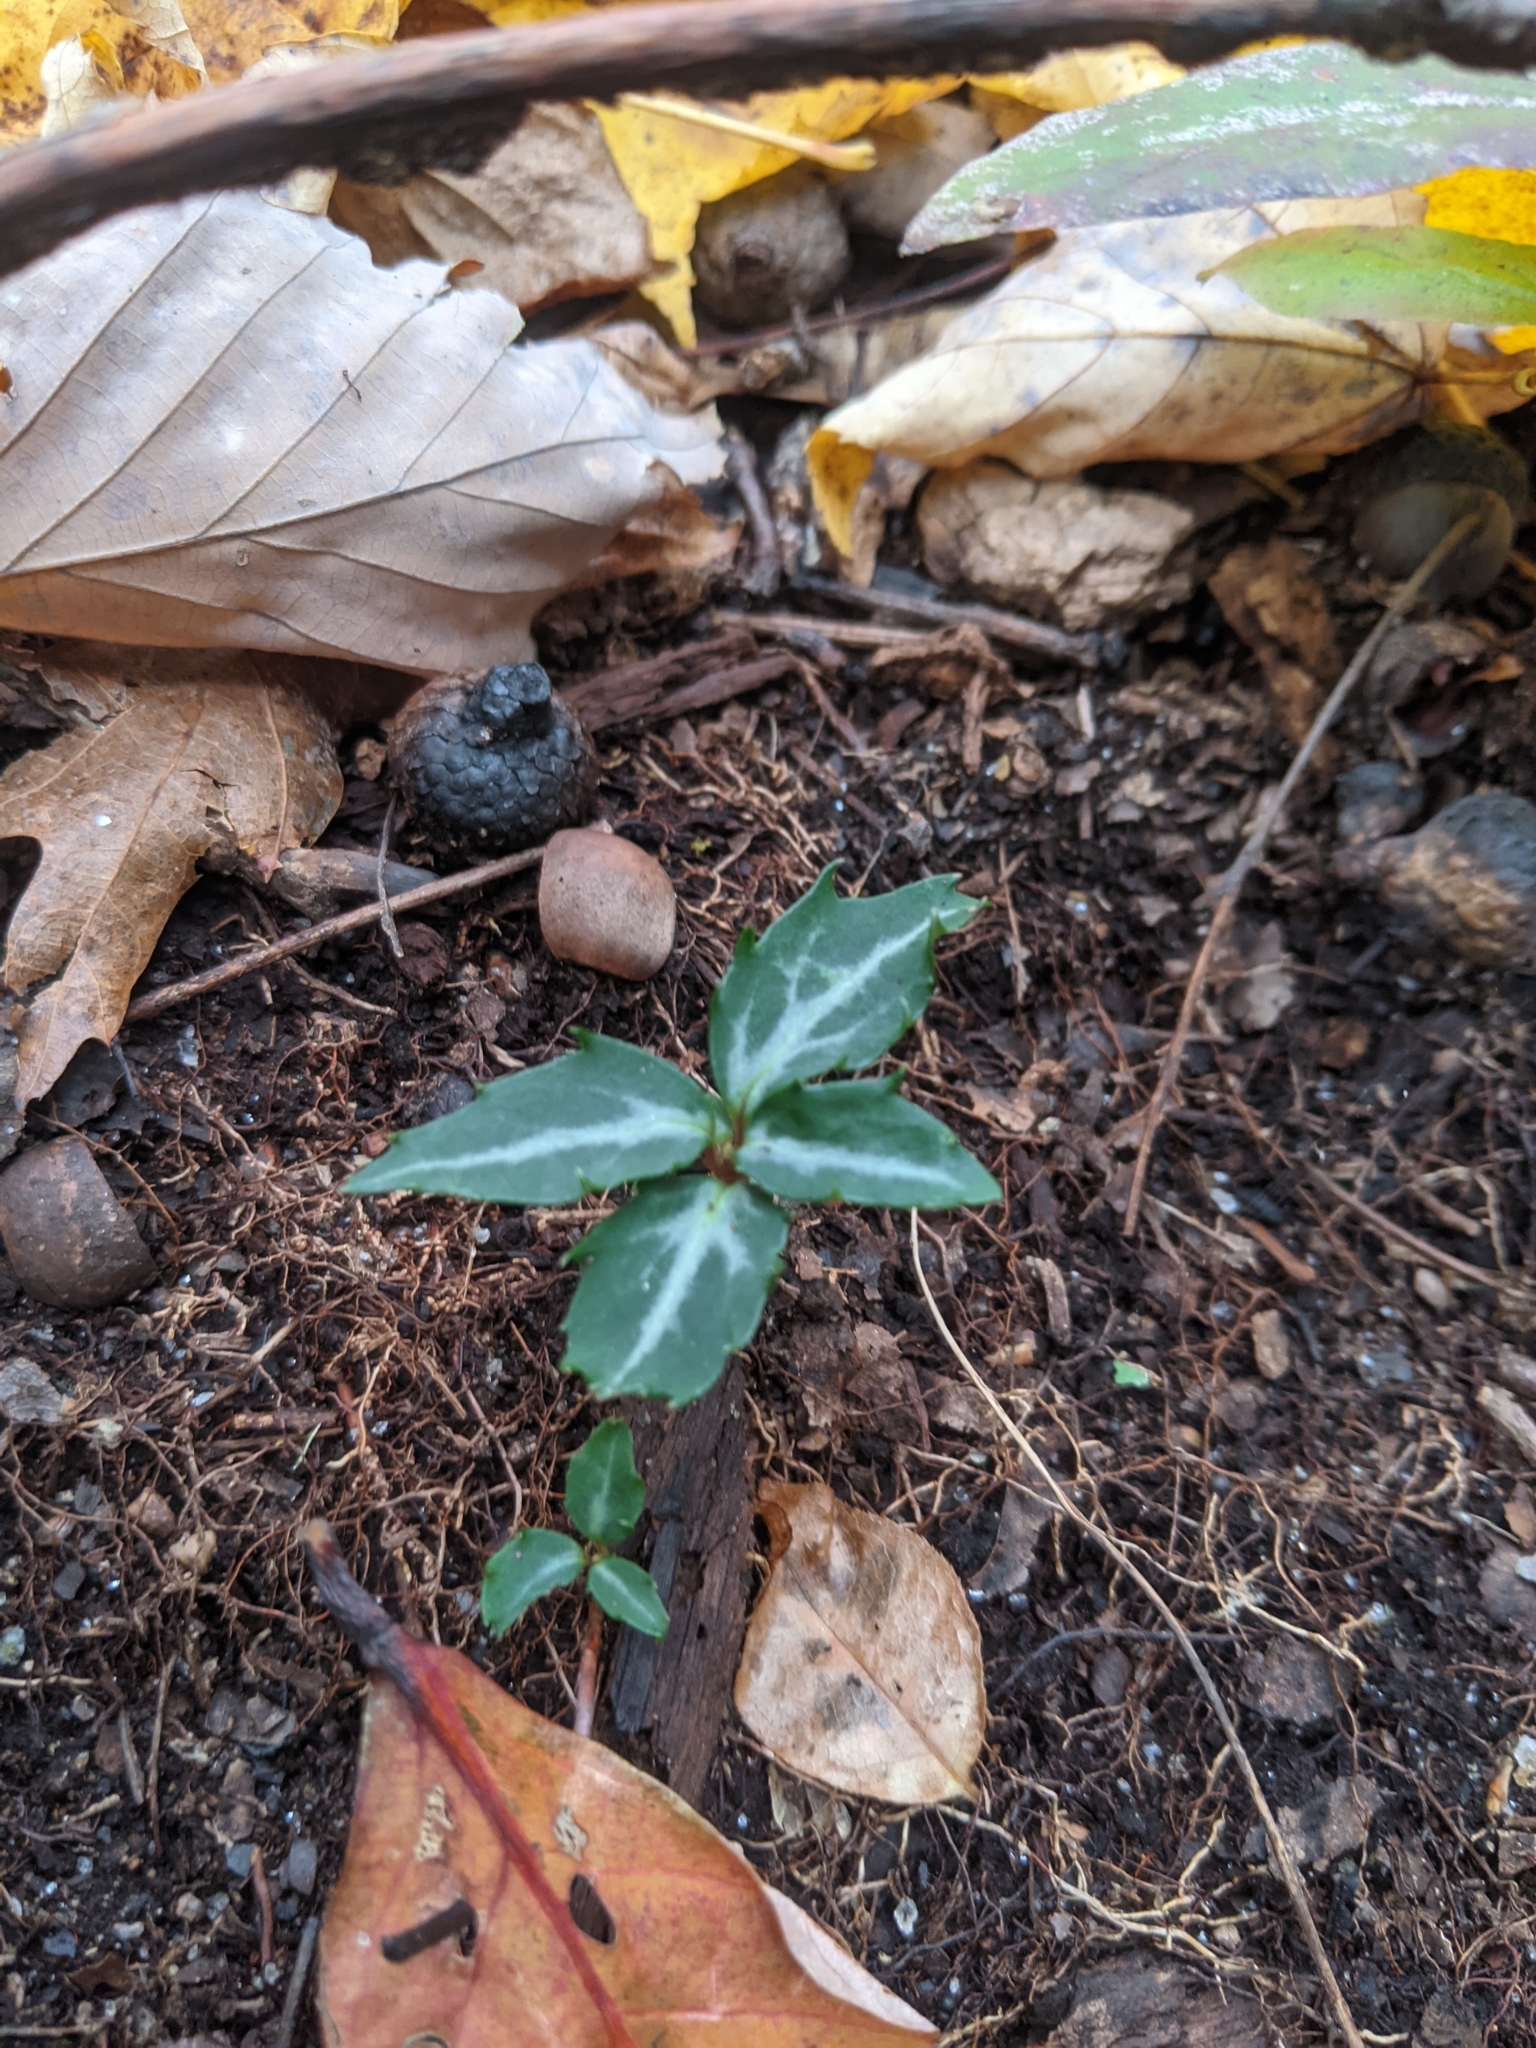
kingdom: Plantae
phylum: Tracheophyta
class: Magnoliopsida
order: Ericales
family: Ericaceae
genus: Chimaphila
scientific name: Chimaphila maculata
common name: Spotted pipsissewa
